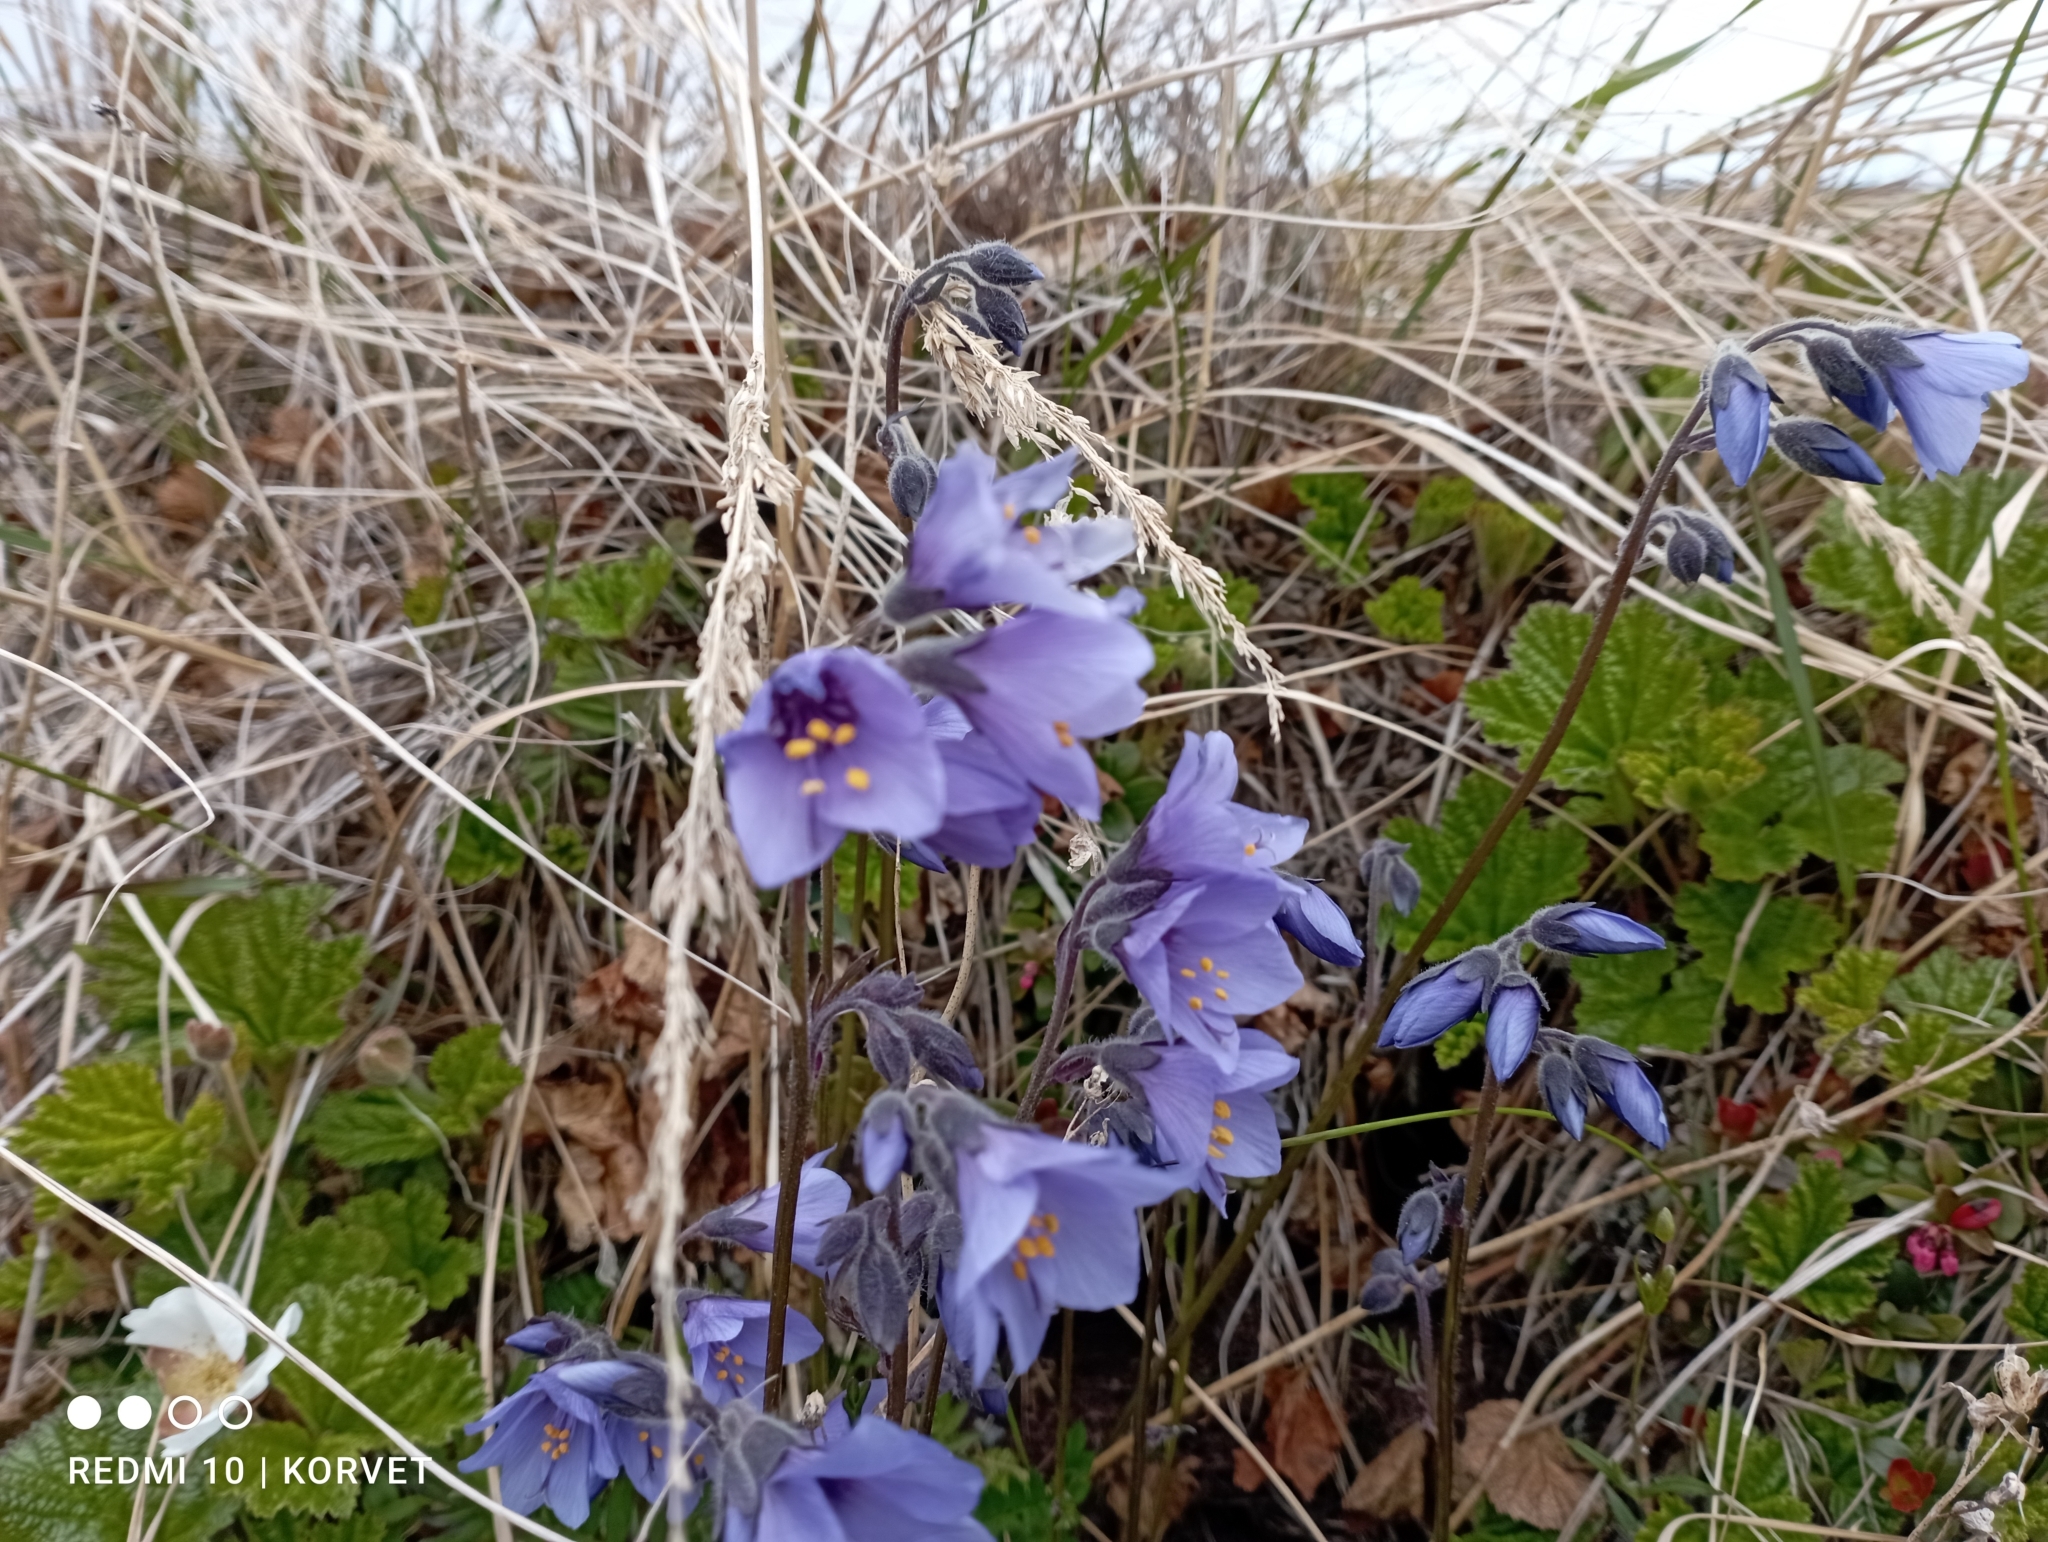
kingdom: Plantae
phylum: Tracheophyta
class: Magnoliopsida
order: Ericales
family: Polemoniaceae
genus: Polemonium
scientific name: Polemonium acutiflorum
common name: Tall jacob's-ladder
